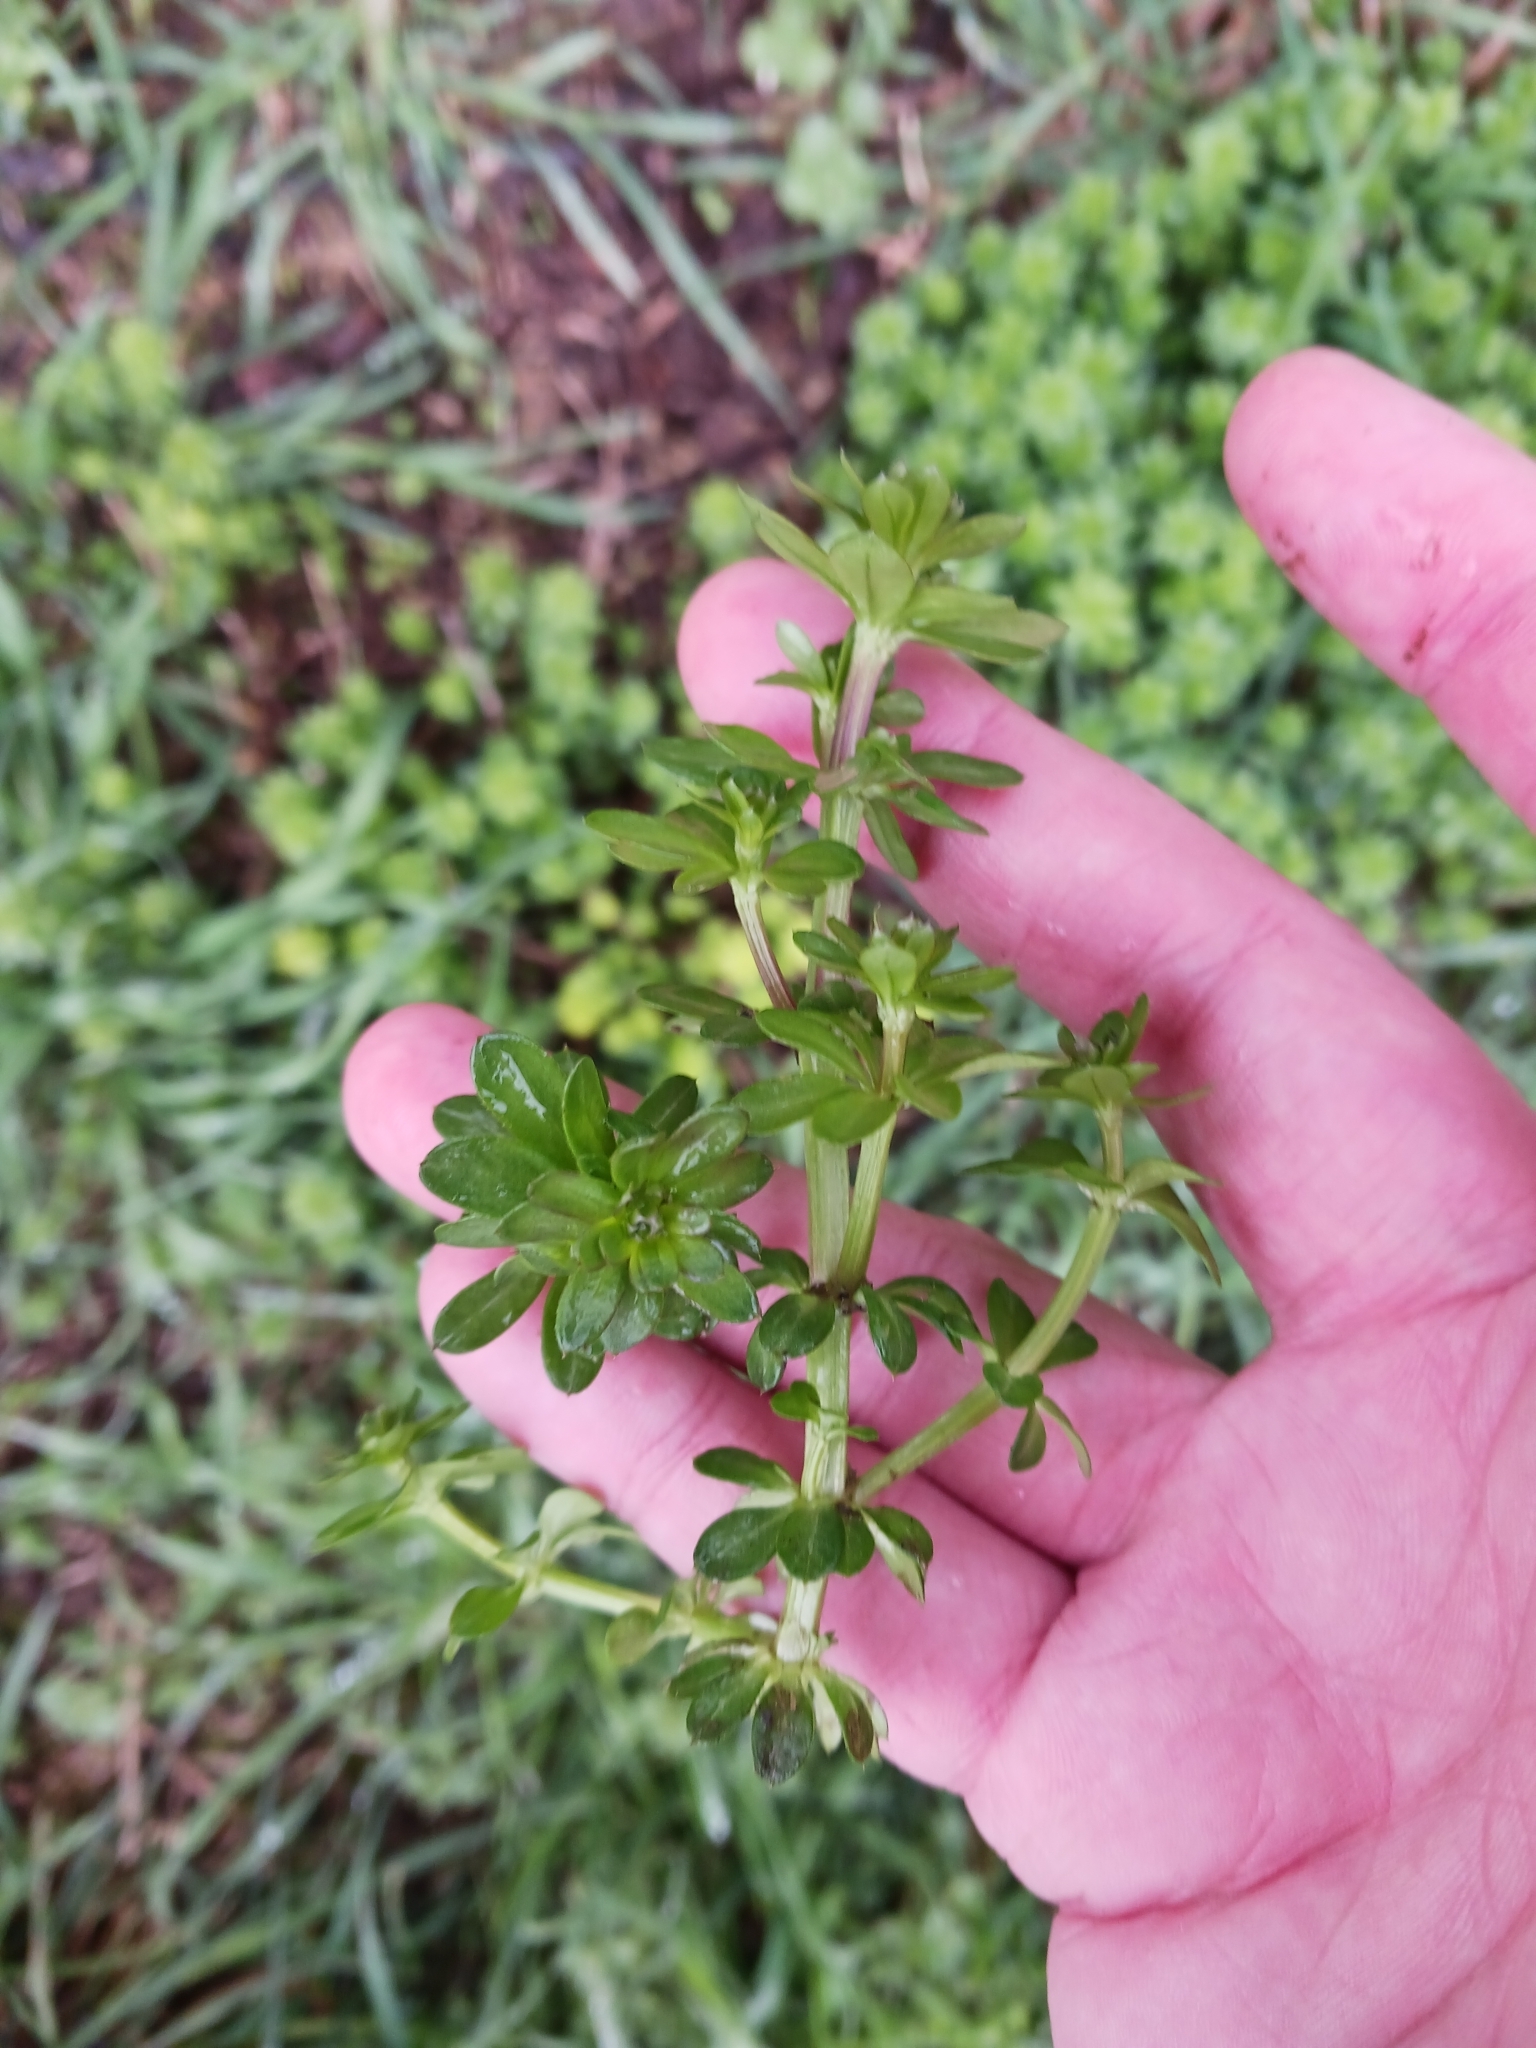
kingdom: Plantae
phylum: Tracheophyta
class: Magnoliopsida
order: Gentianales
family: Rubiaceae
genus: Galium
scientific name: Galium
